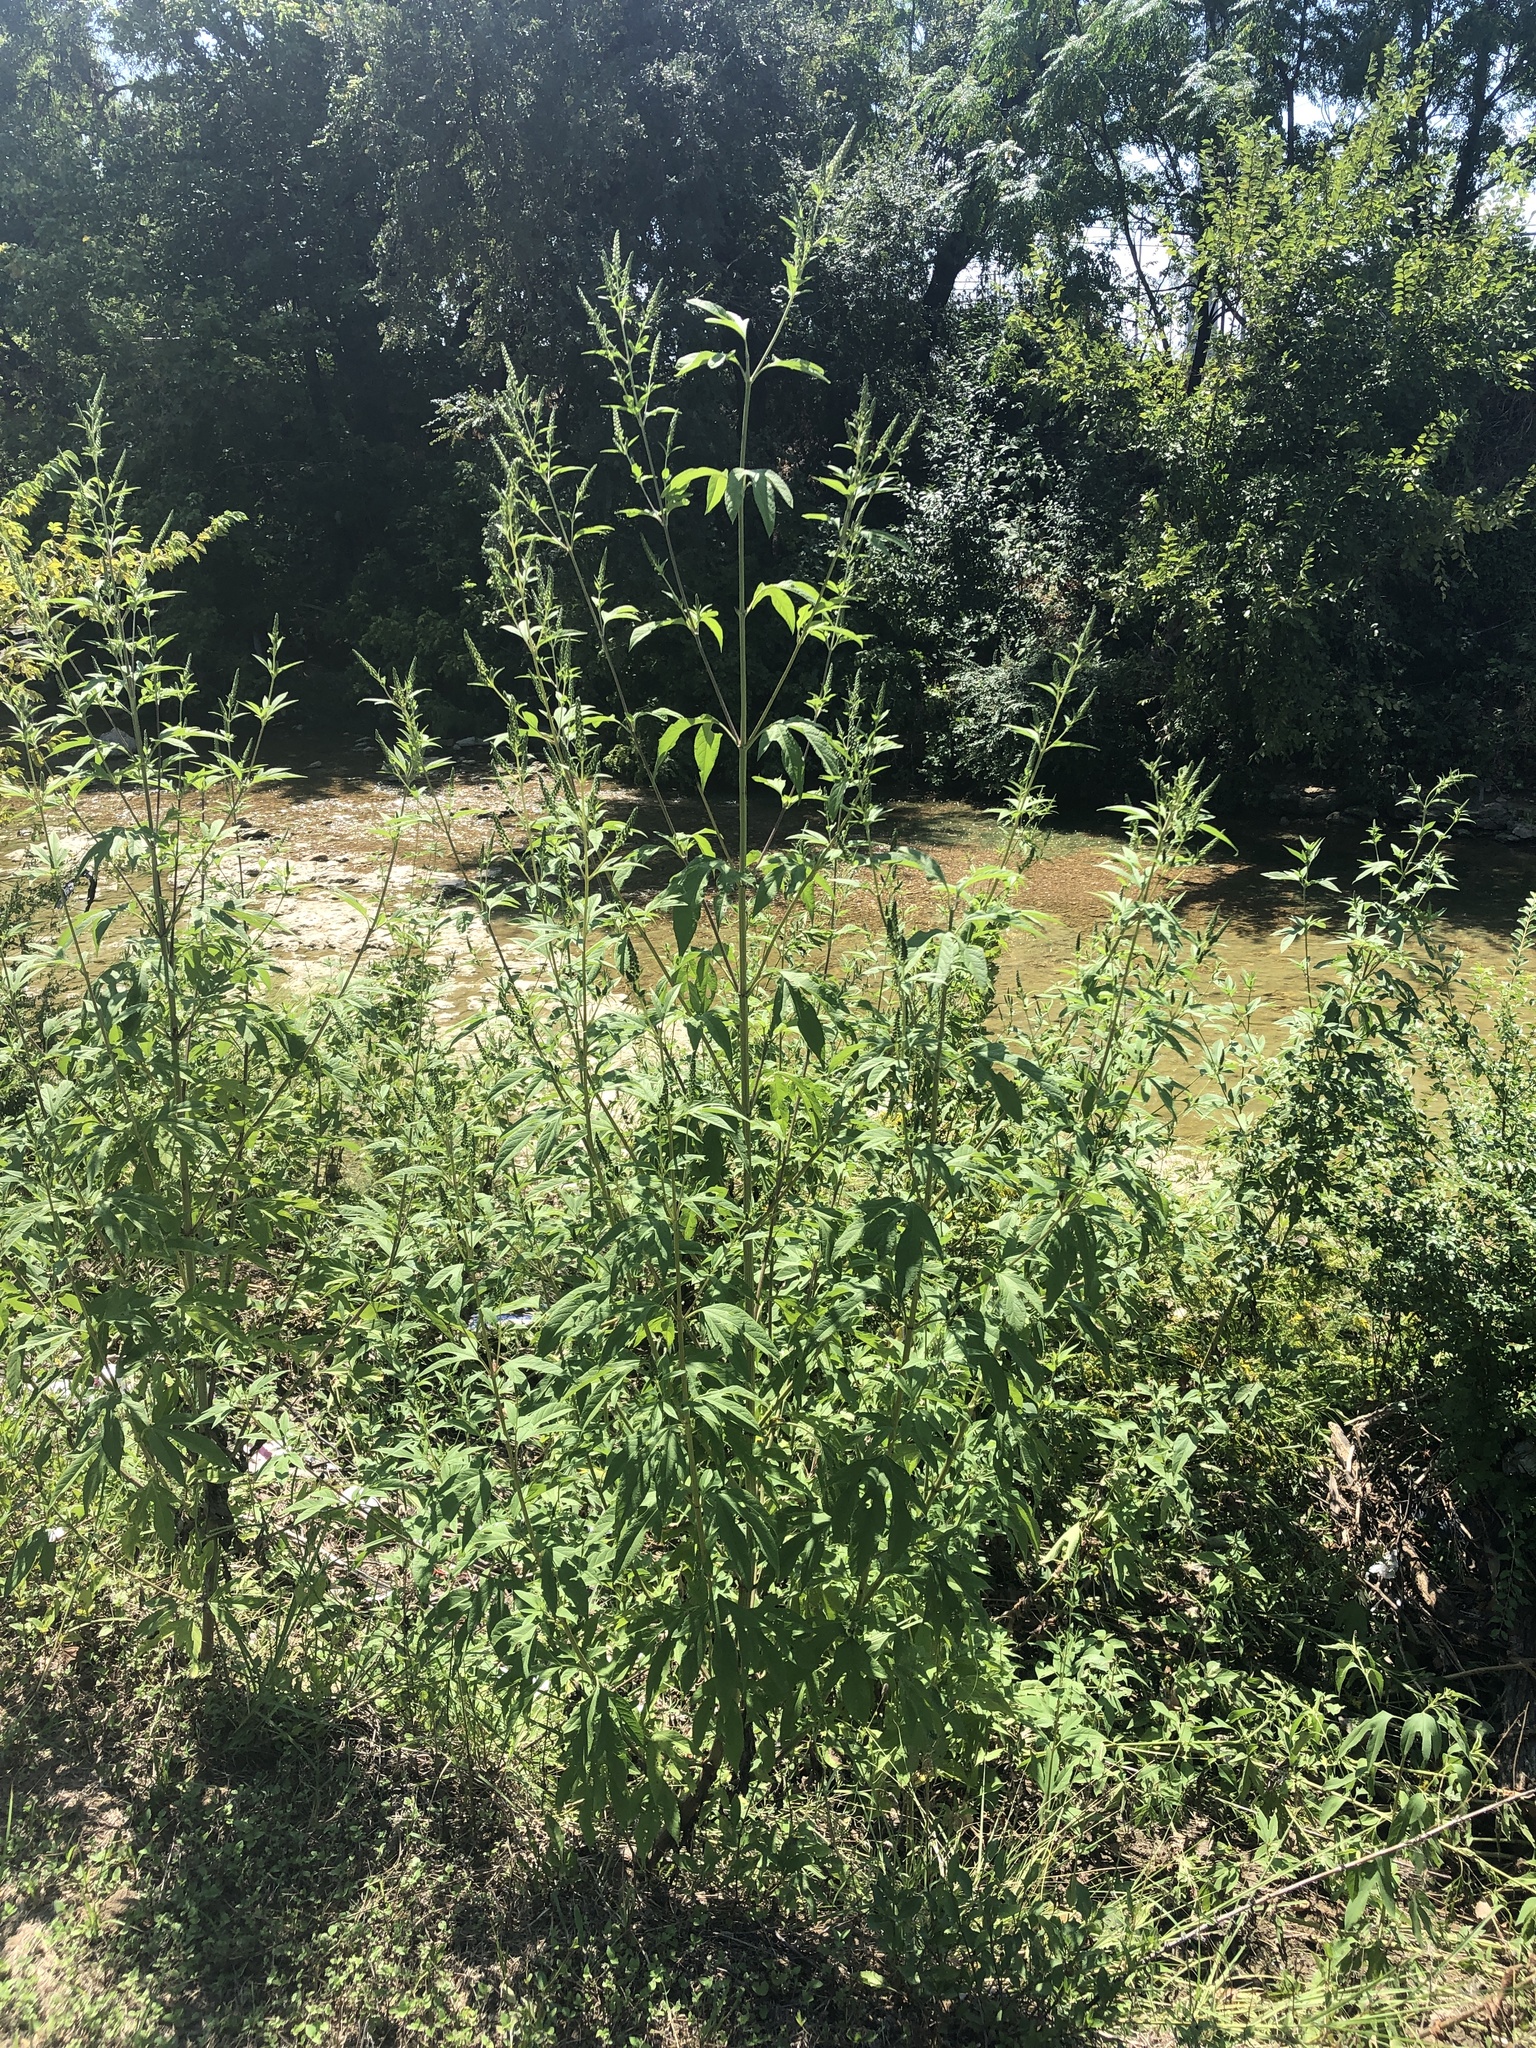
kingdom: Plantae
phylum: Tracheophyta
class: Magnoliopsida
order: Asterales
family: Asteraceae
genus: Ambrosia
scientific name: Ambrosia trifida
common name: Giant ragweed
